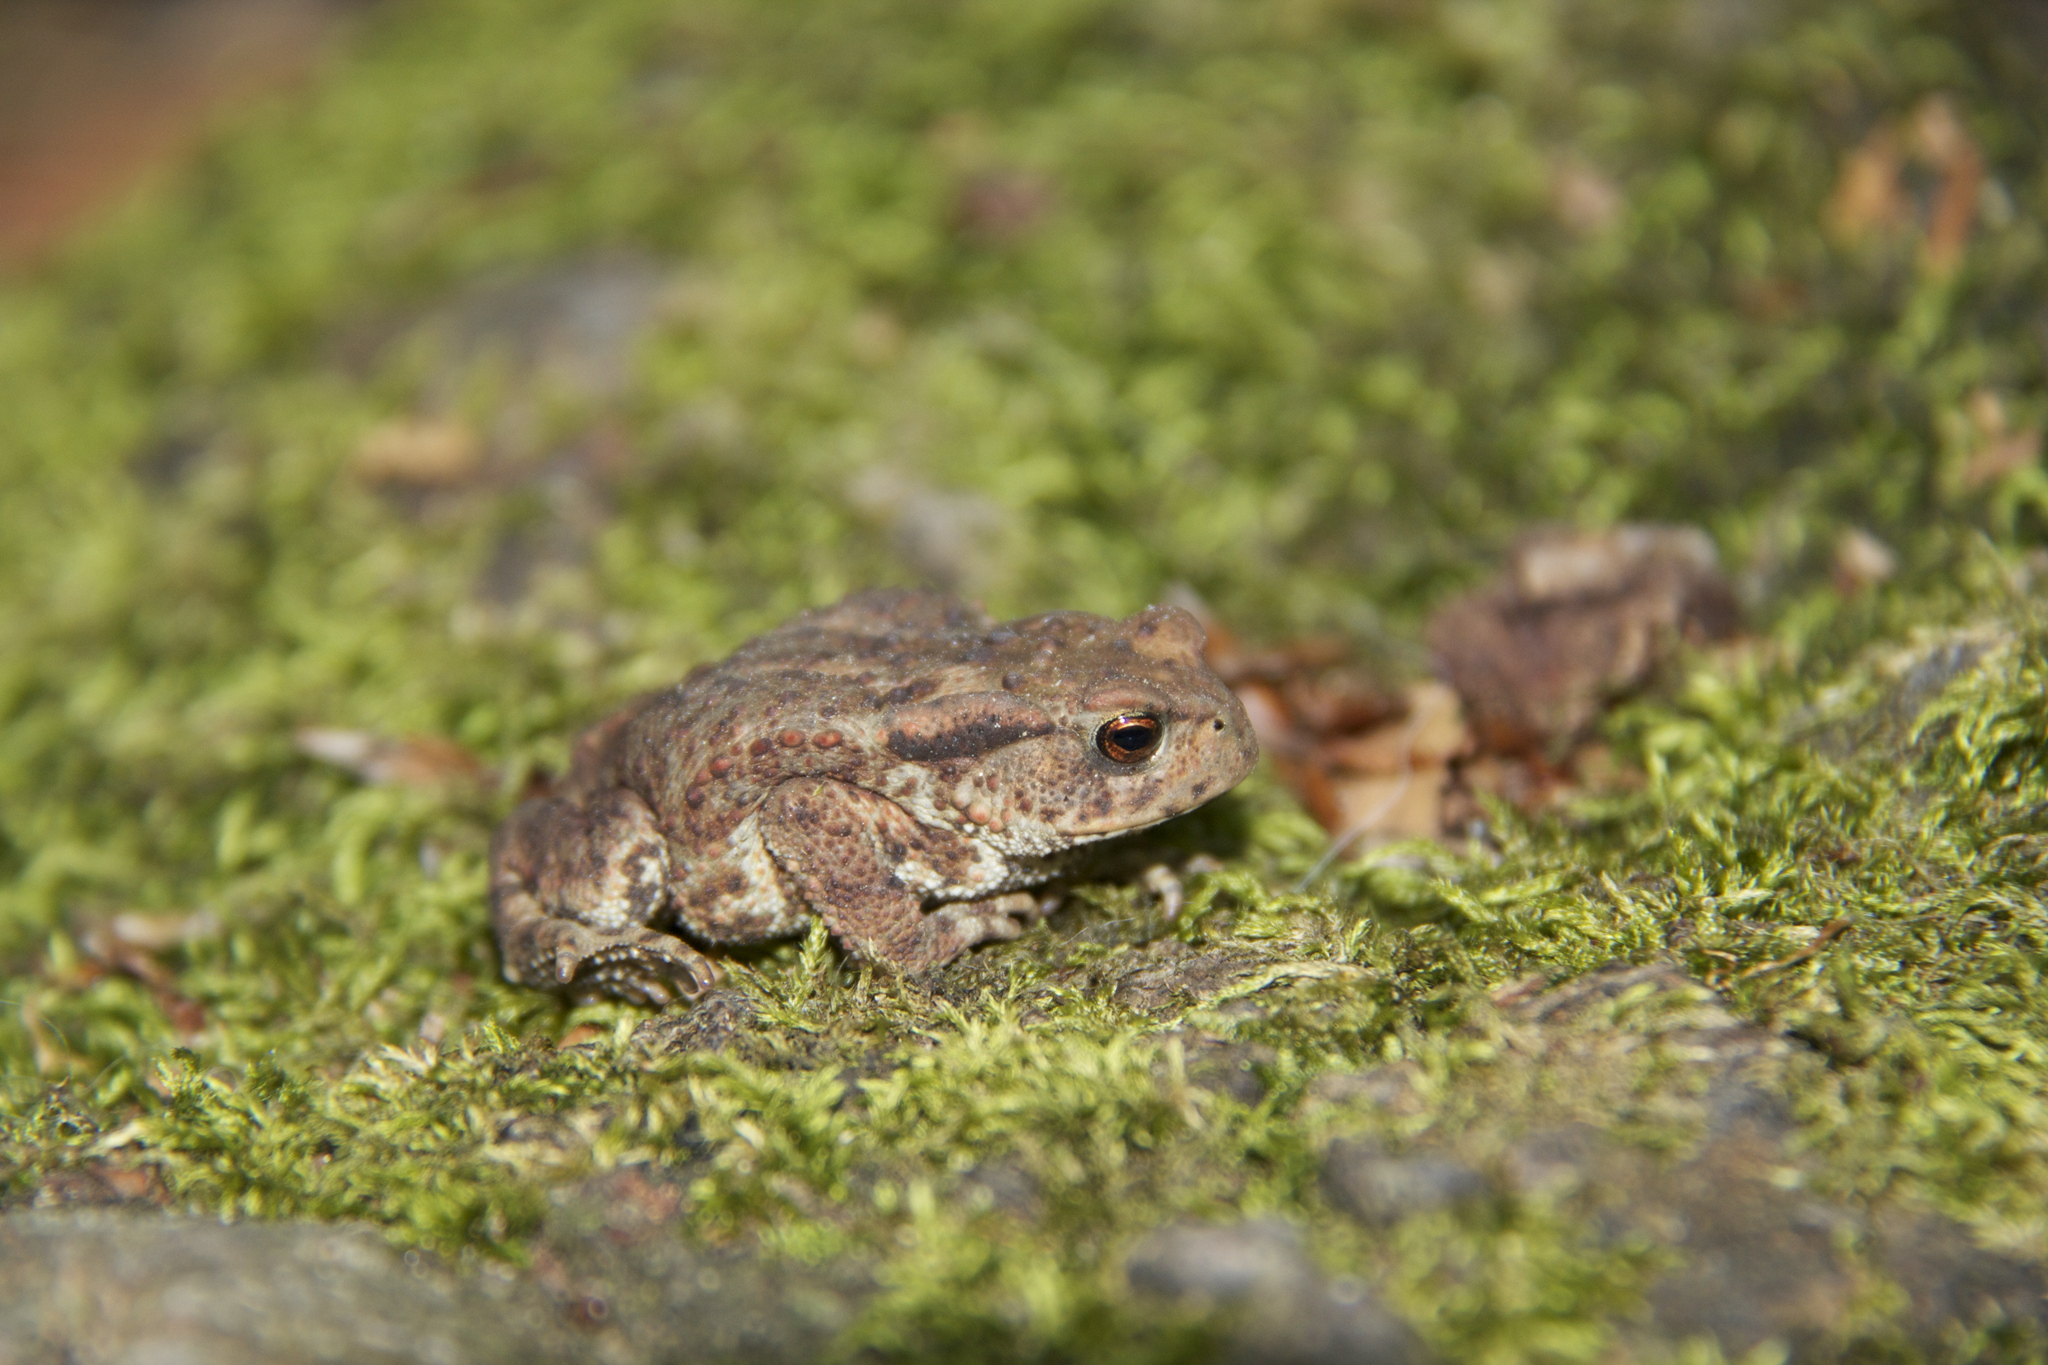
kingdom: Animalia
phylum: Chordata
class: Amphibia
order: Anura
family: Bufonidae
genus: Bufo
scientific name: Bufo bufo
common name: Common toad
